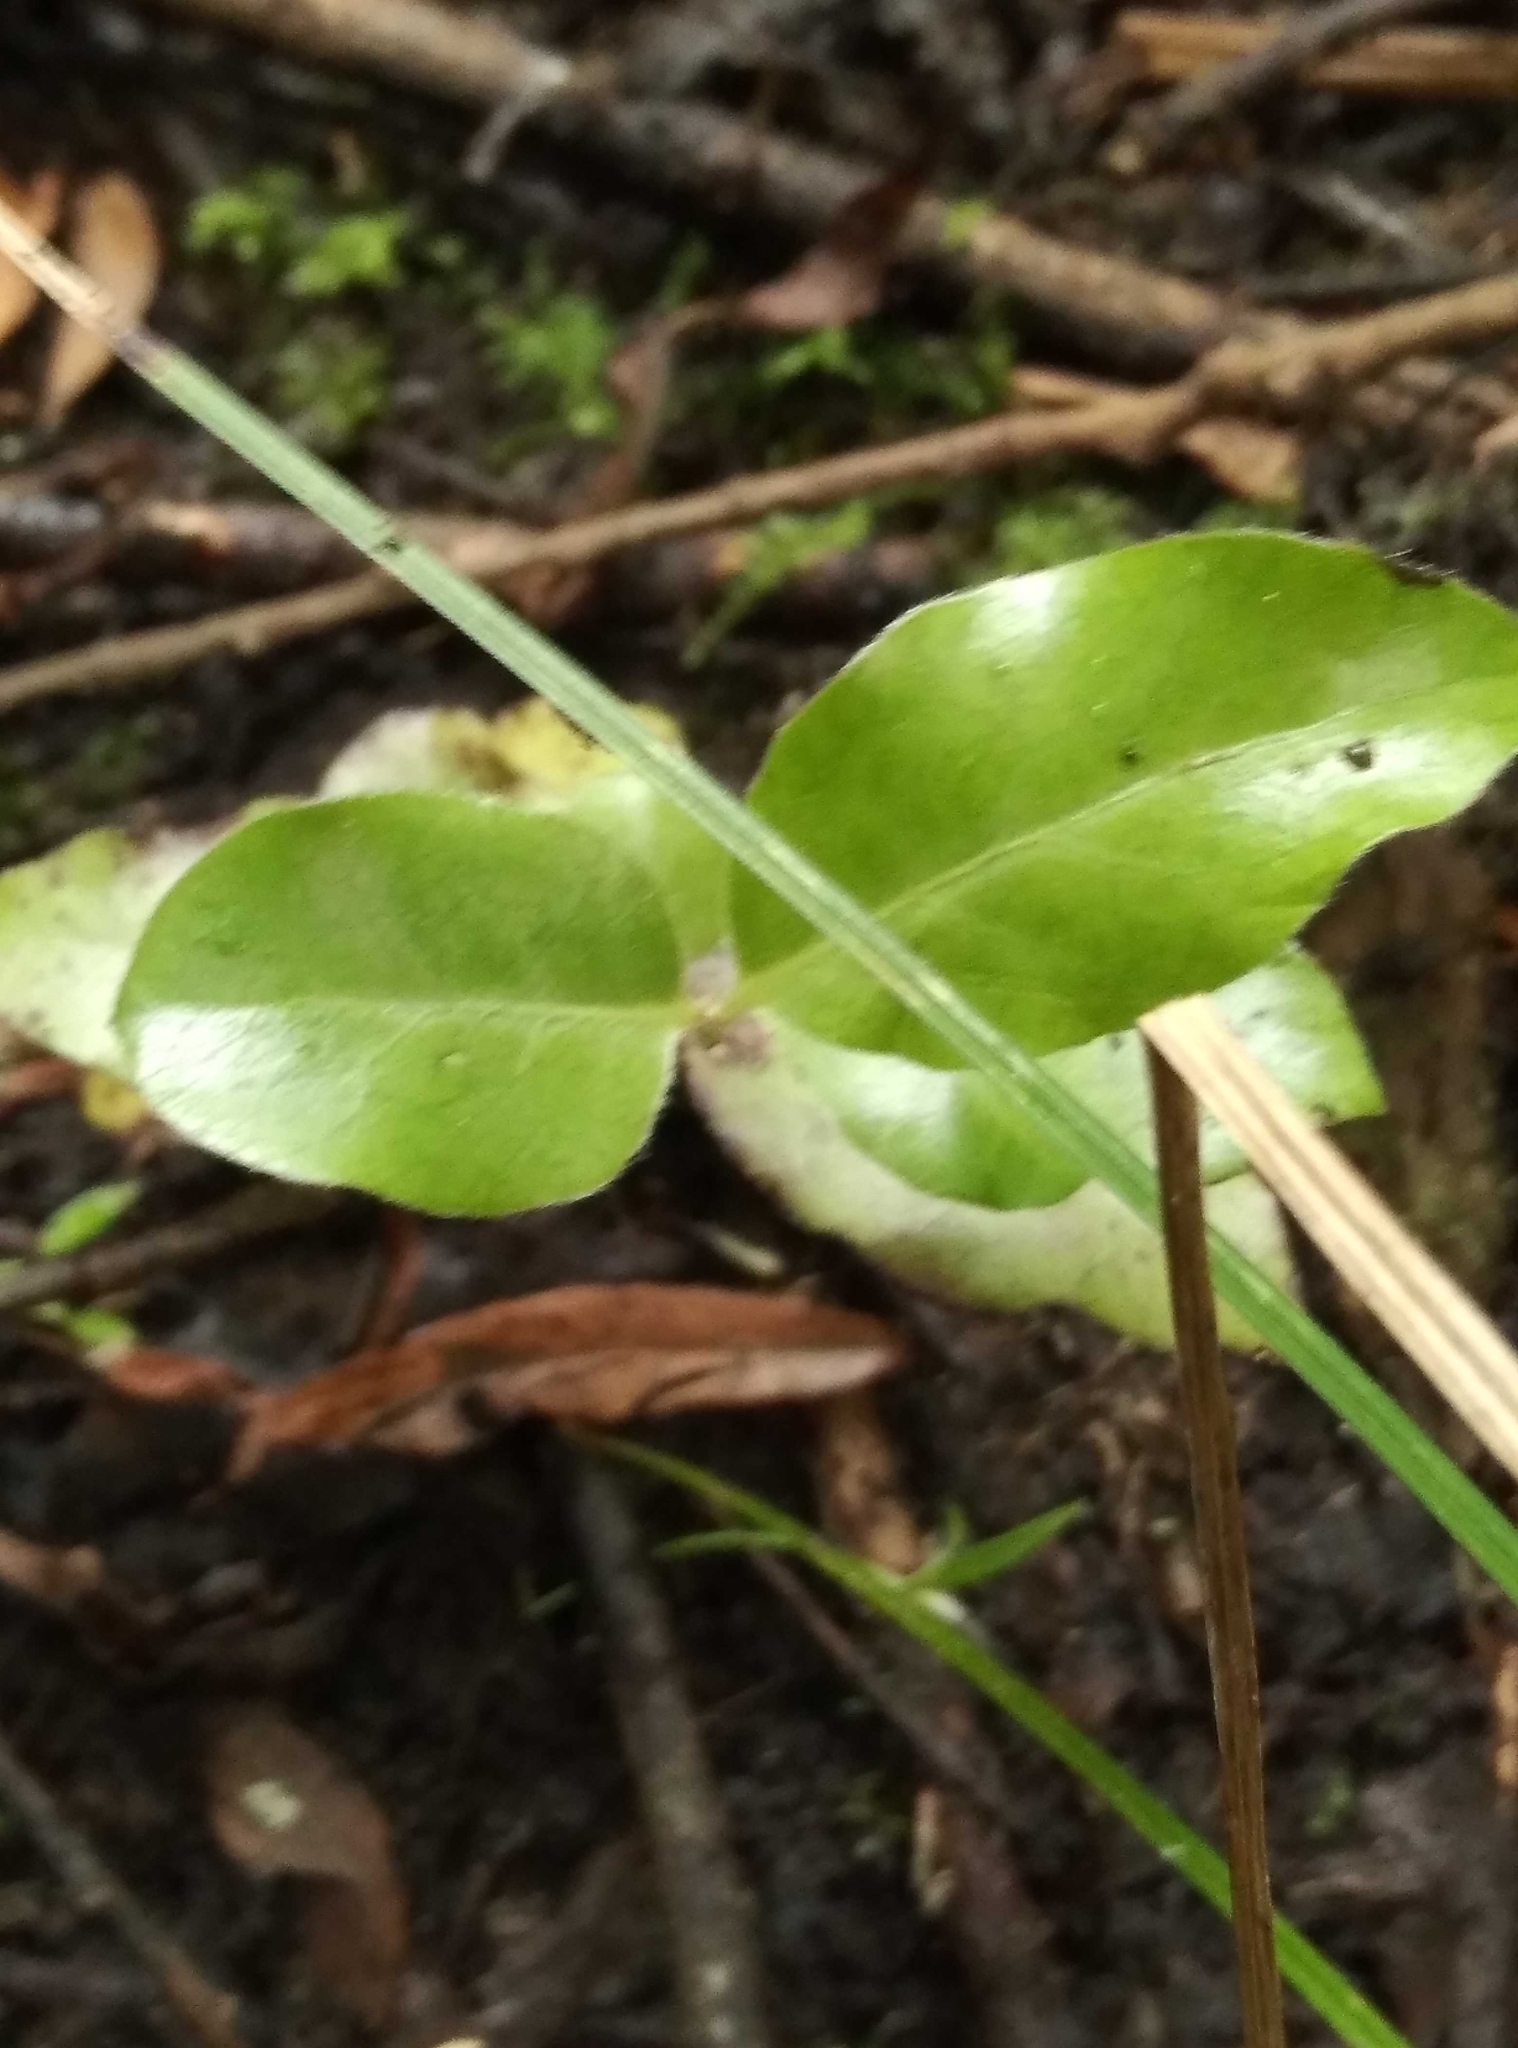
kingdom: Plantae
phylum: Tracheophyta
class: Magnoliopsida
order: Apiales
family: Pittosporaceae
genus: Pittosporum
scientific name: Pittosporum tenuifolium
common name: Kohuhu
